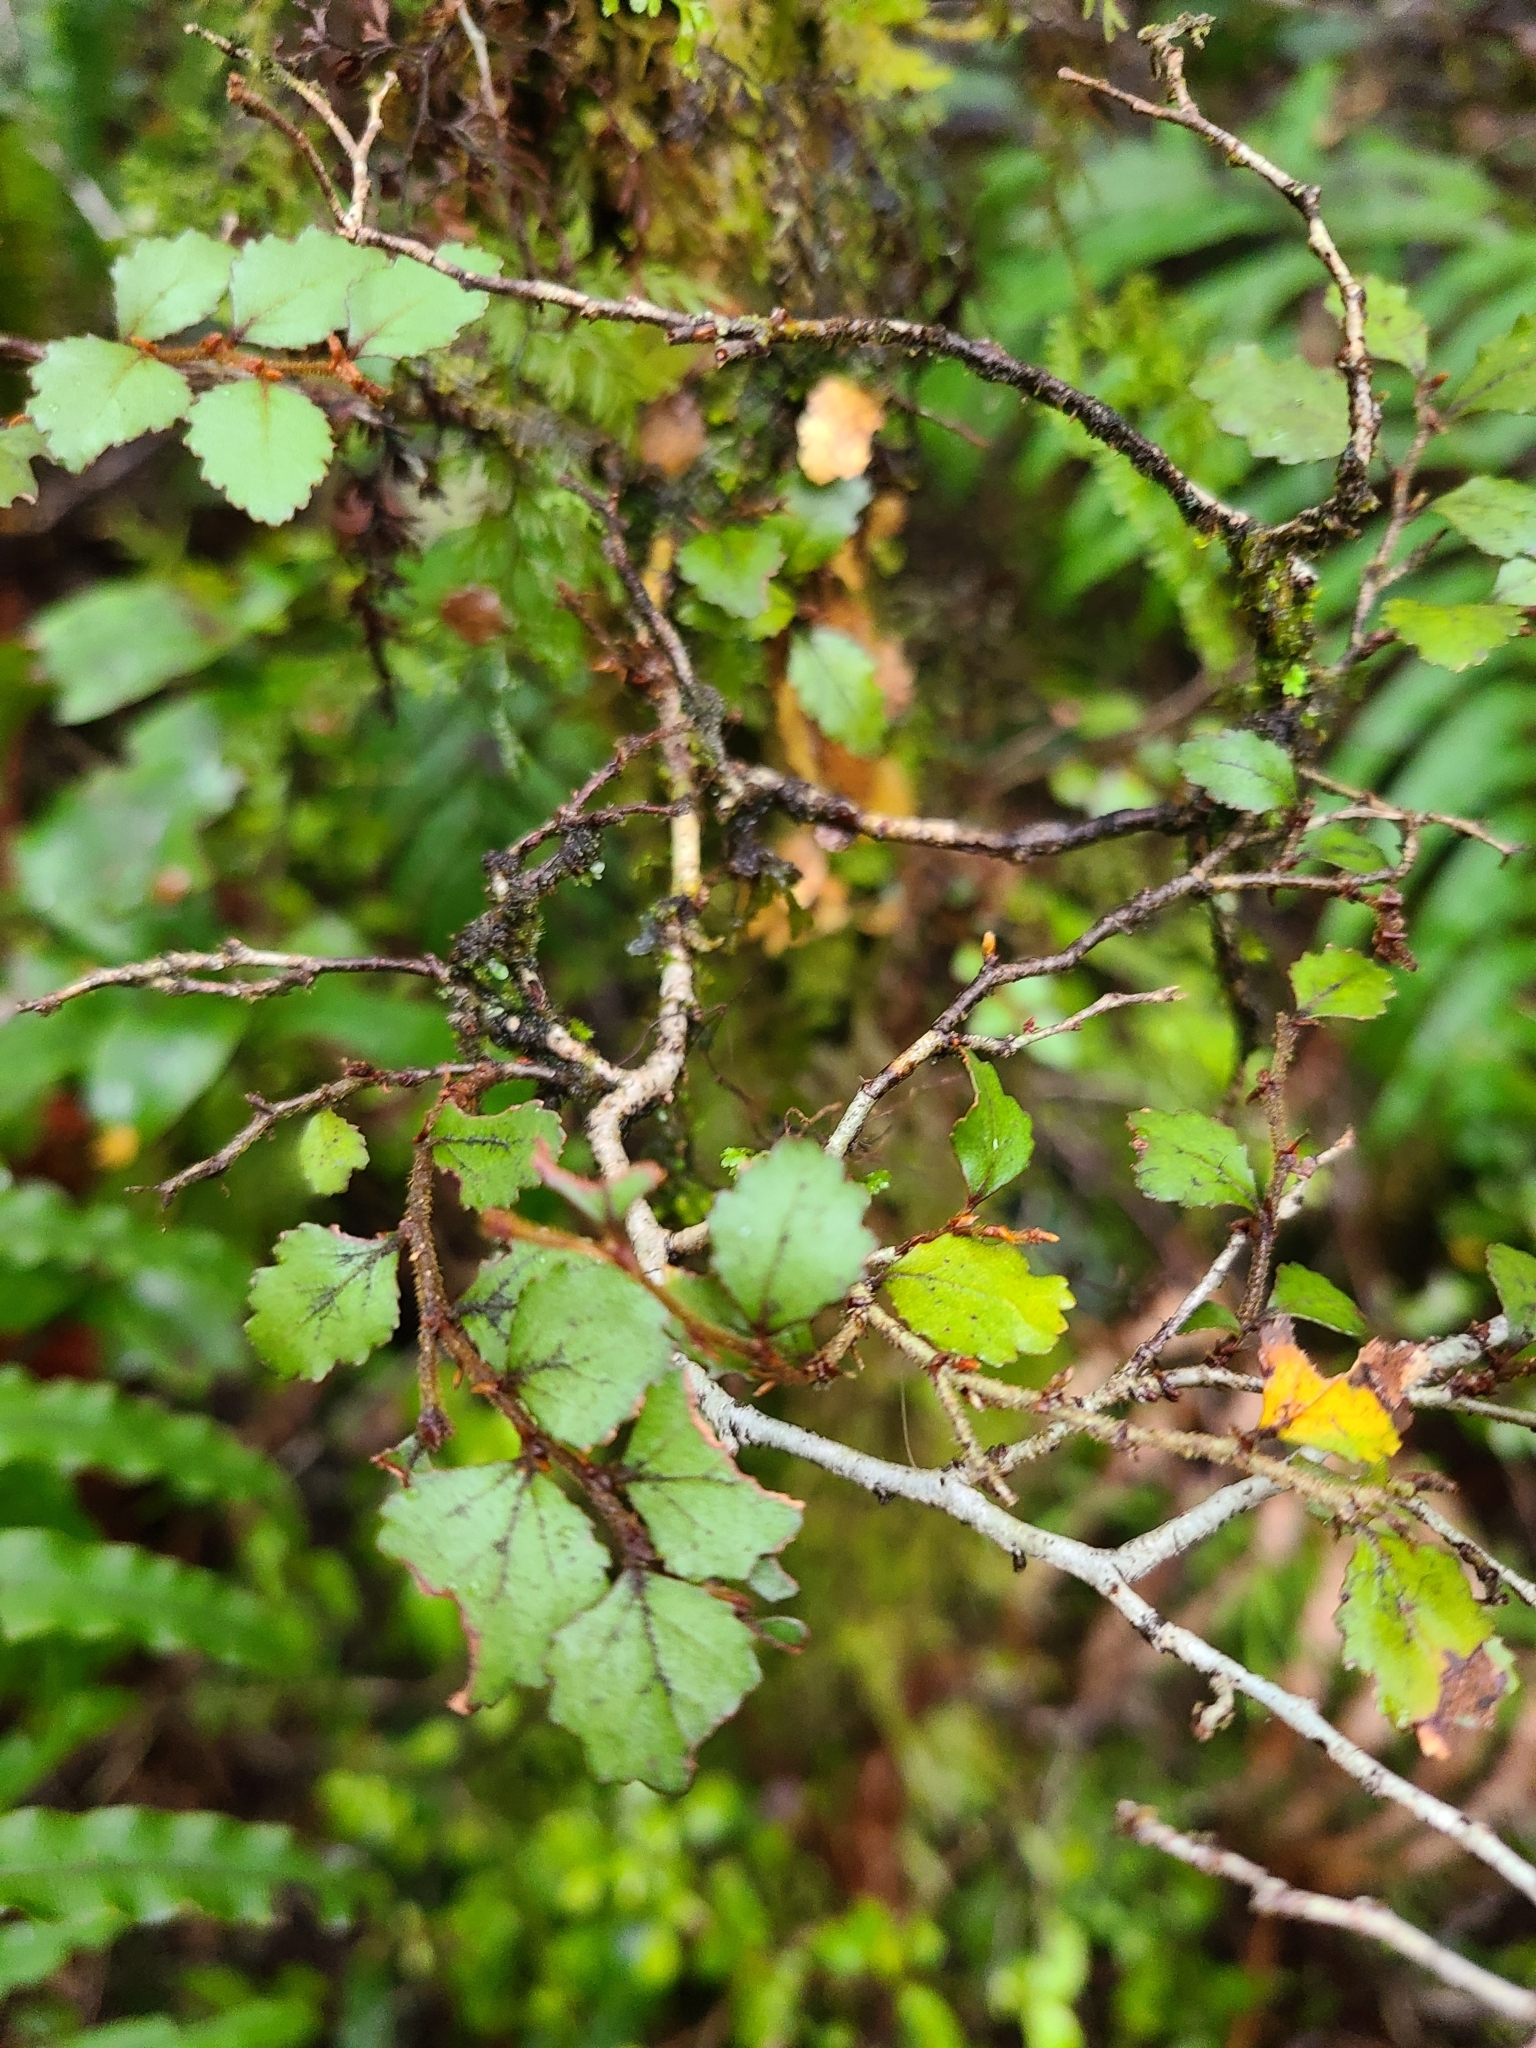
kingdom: Plantae
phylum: Tracheophyta
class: Magnoliopsida
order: Fagales
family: Nothofagaceae
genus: Nothofagus
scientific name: Nothofagus menziesii
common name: Silver beech
